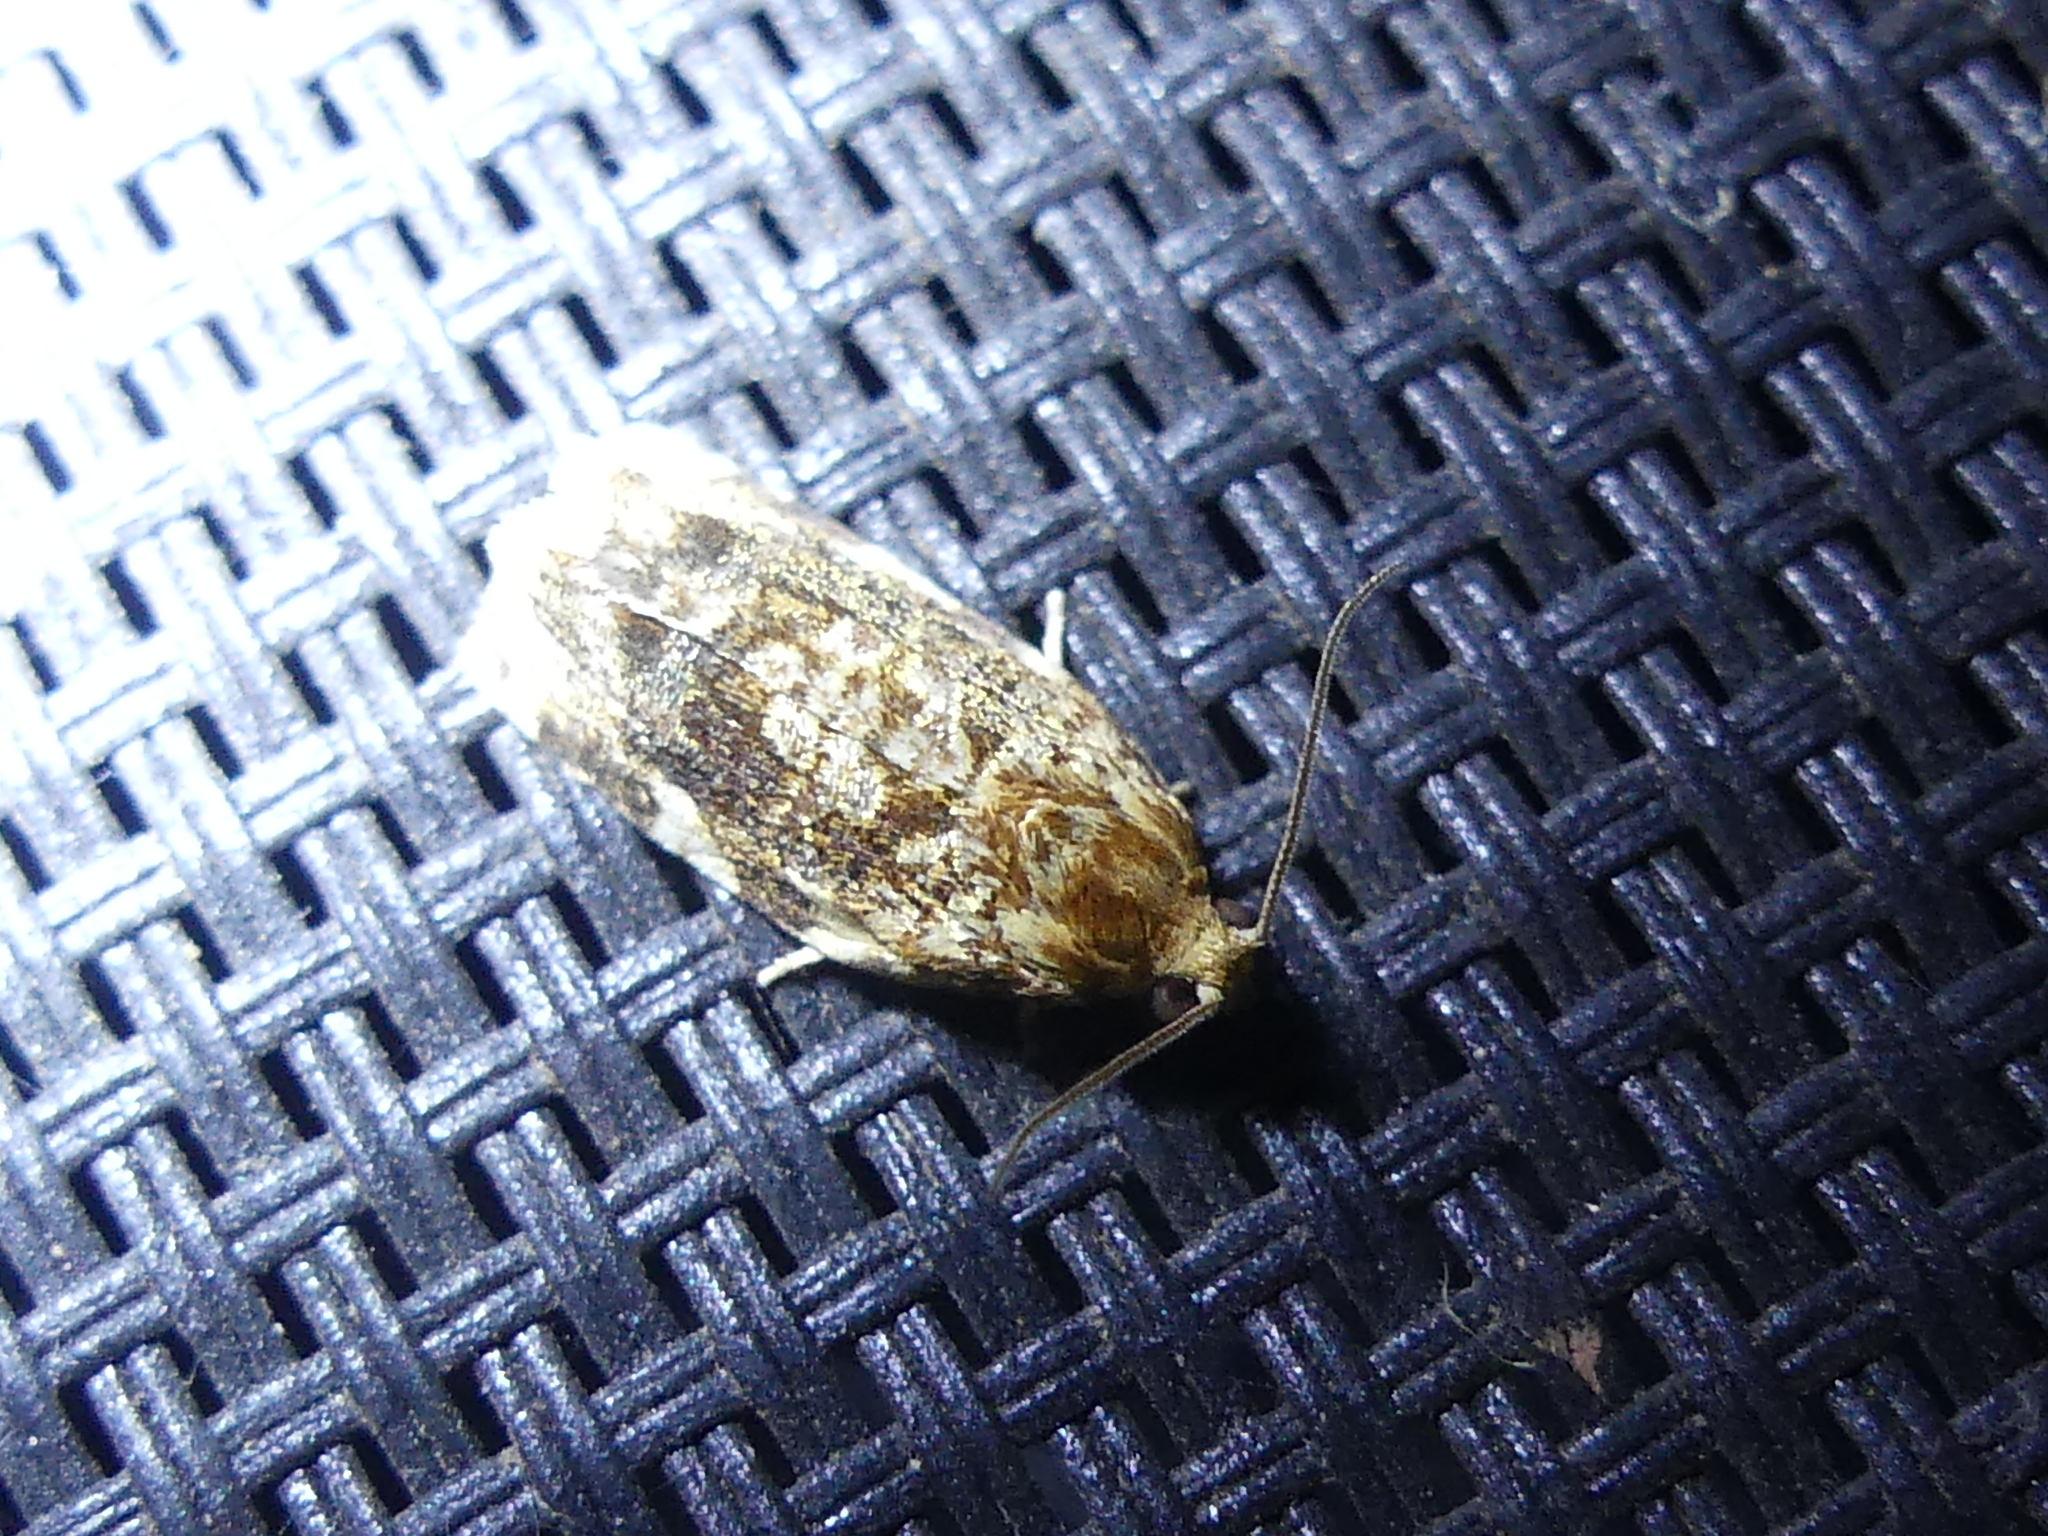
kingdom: Animalia
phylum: Arthropoda
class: Insecta
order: Lepidoptera
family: Tortricidae
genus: Archips
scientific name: Archips argyrospila
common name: Fruit-tree leafroller moth
